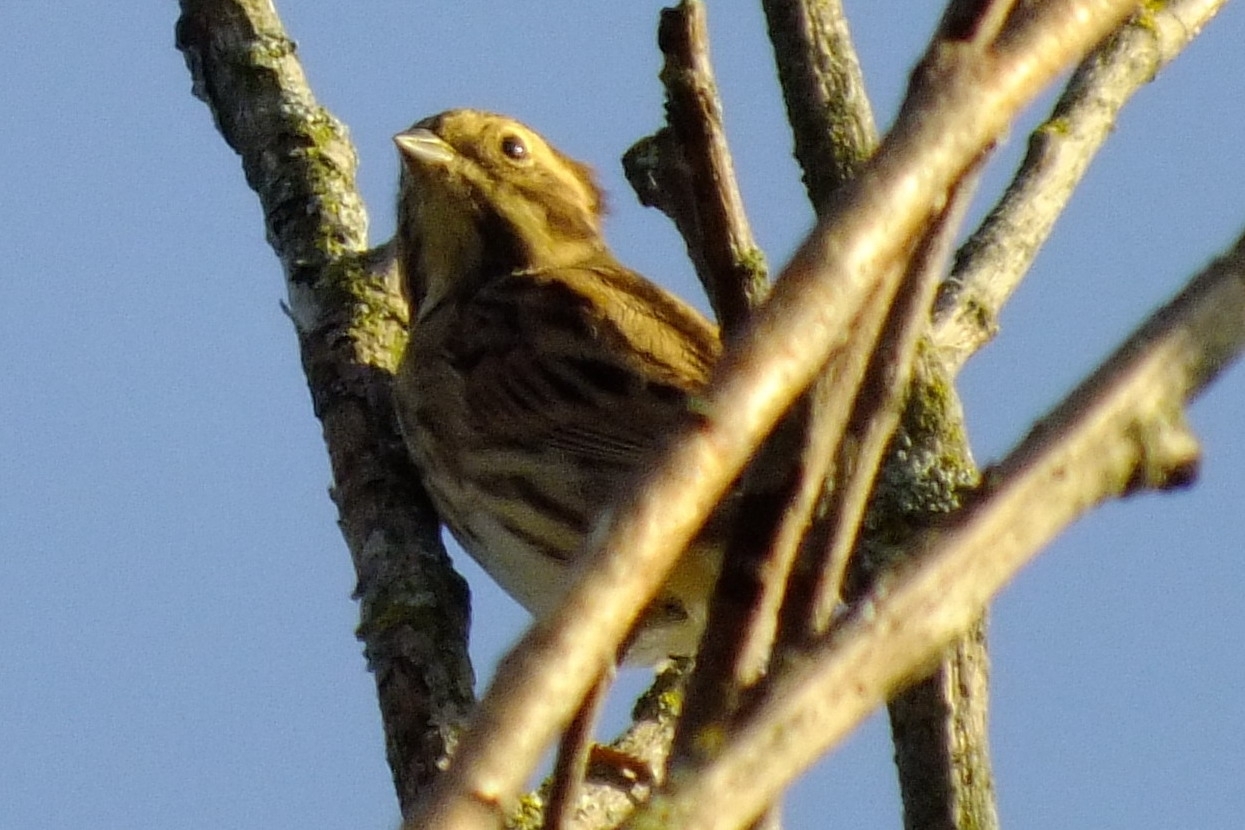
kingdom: Animalia
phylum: Chordata
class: Aves
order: Passeriformes
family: Emberizidae
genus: Emberiza
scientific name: Emberiza schoeniclus
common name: Reed bunting
